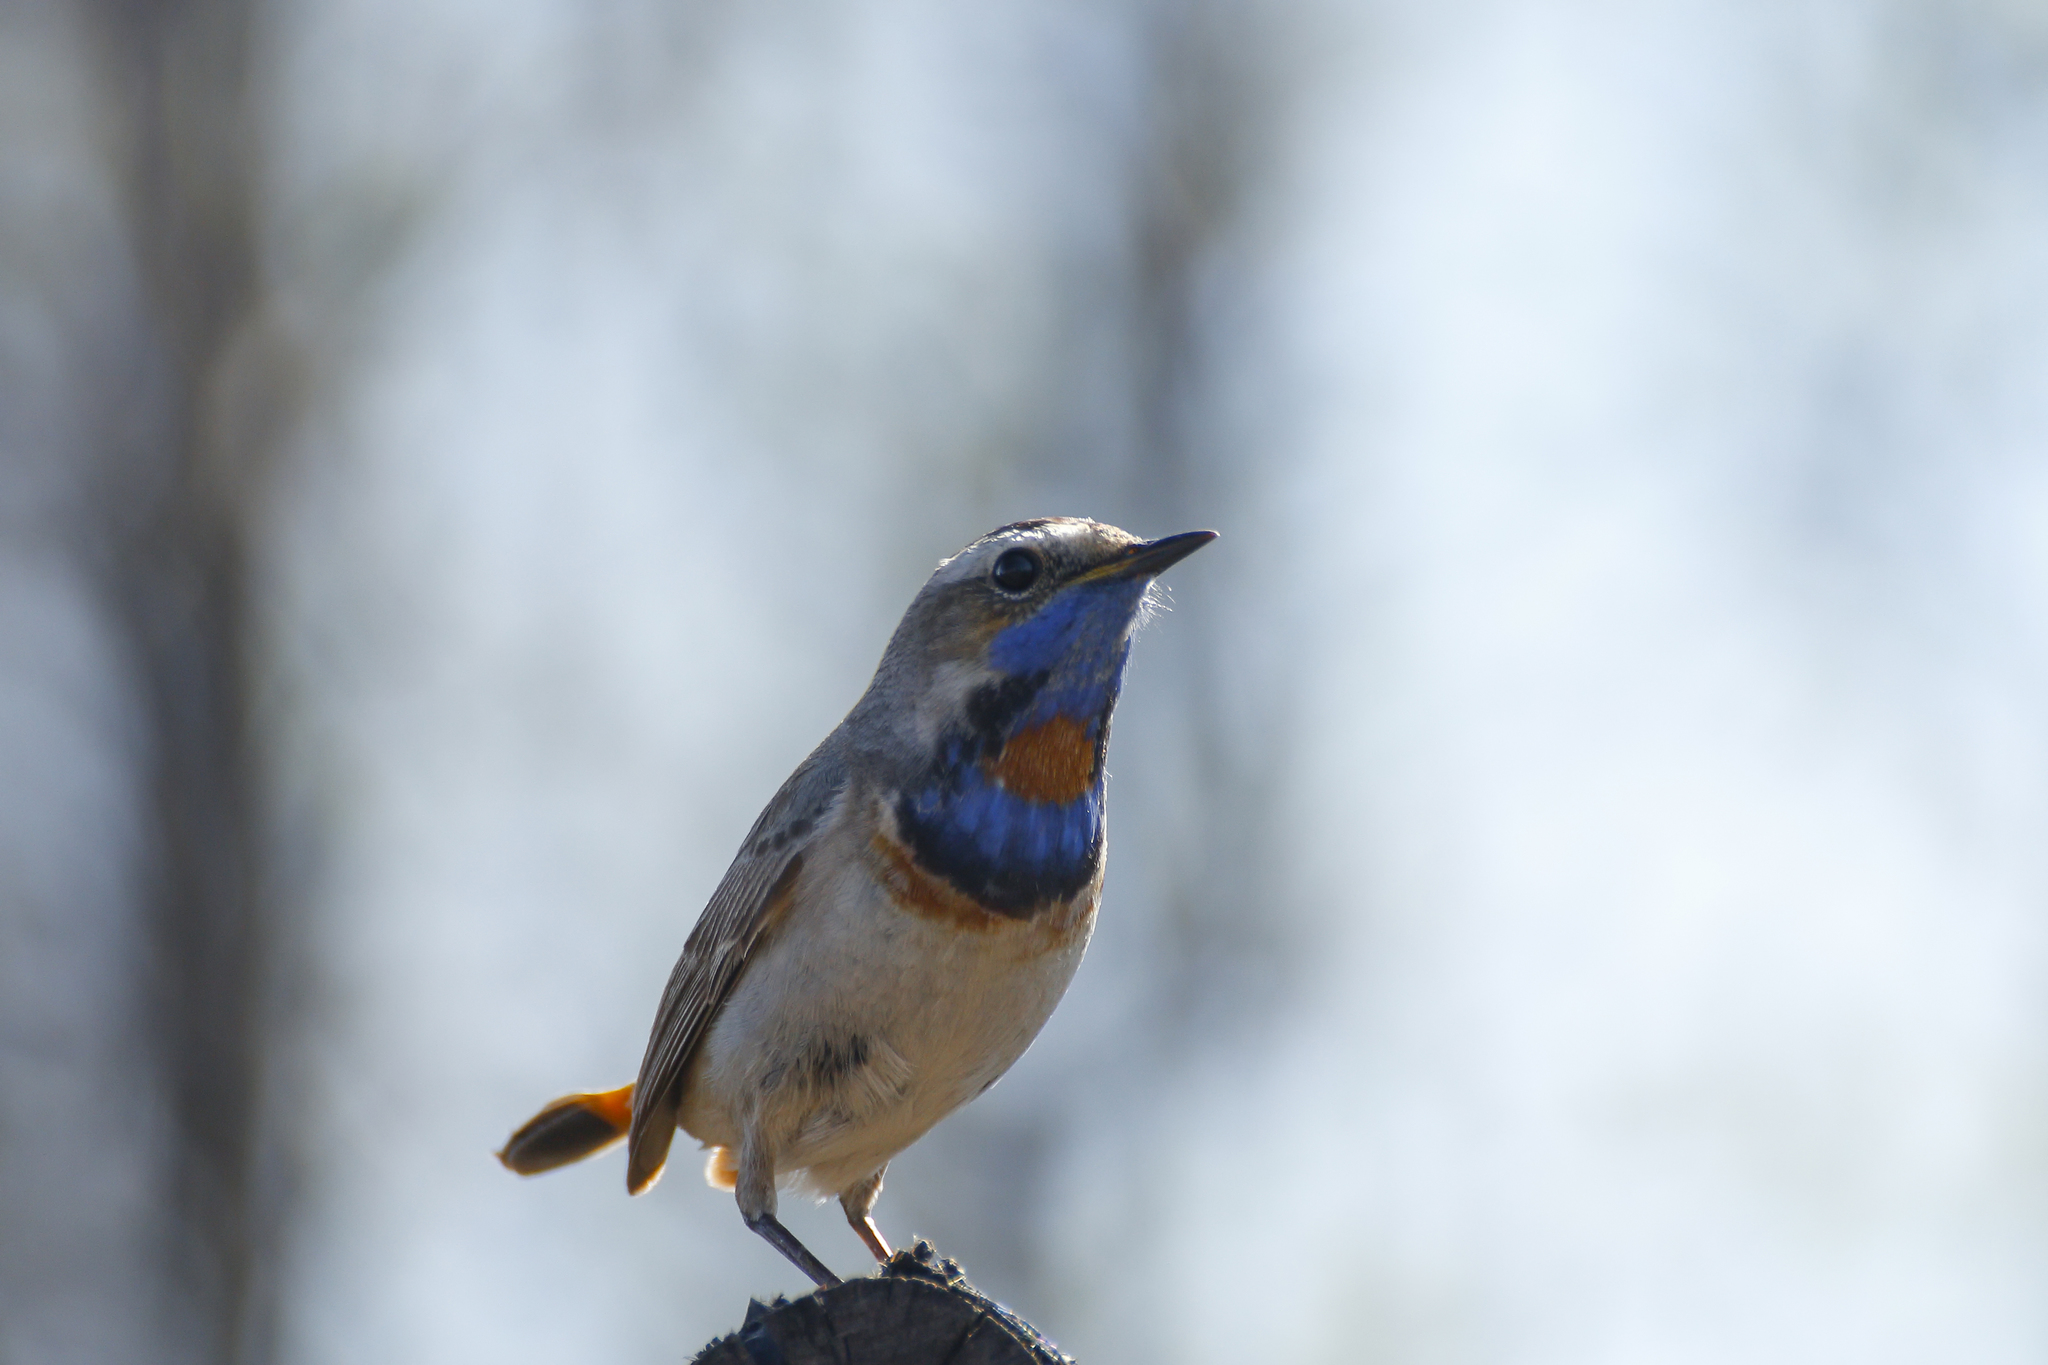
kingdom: Animalia
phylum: Chordata
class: Aves
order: Passeriformes
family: Muscicapidae
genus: Luscinia
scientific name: Luscinia svecica
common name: Bluethroat
